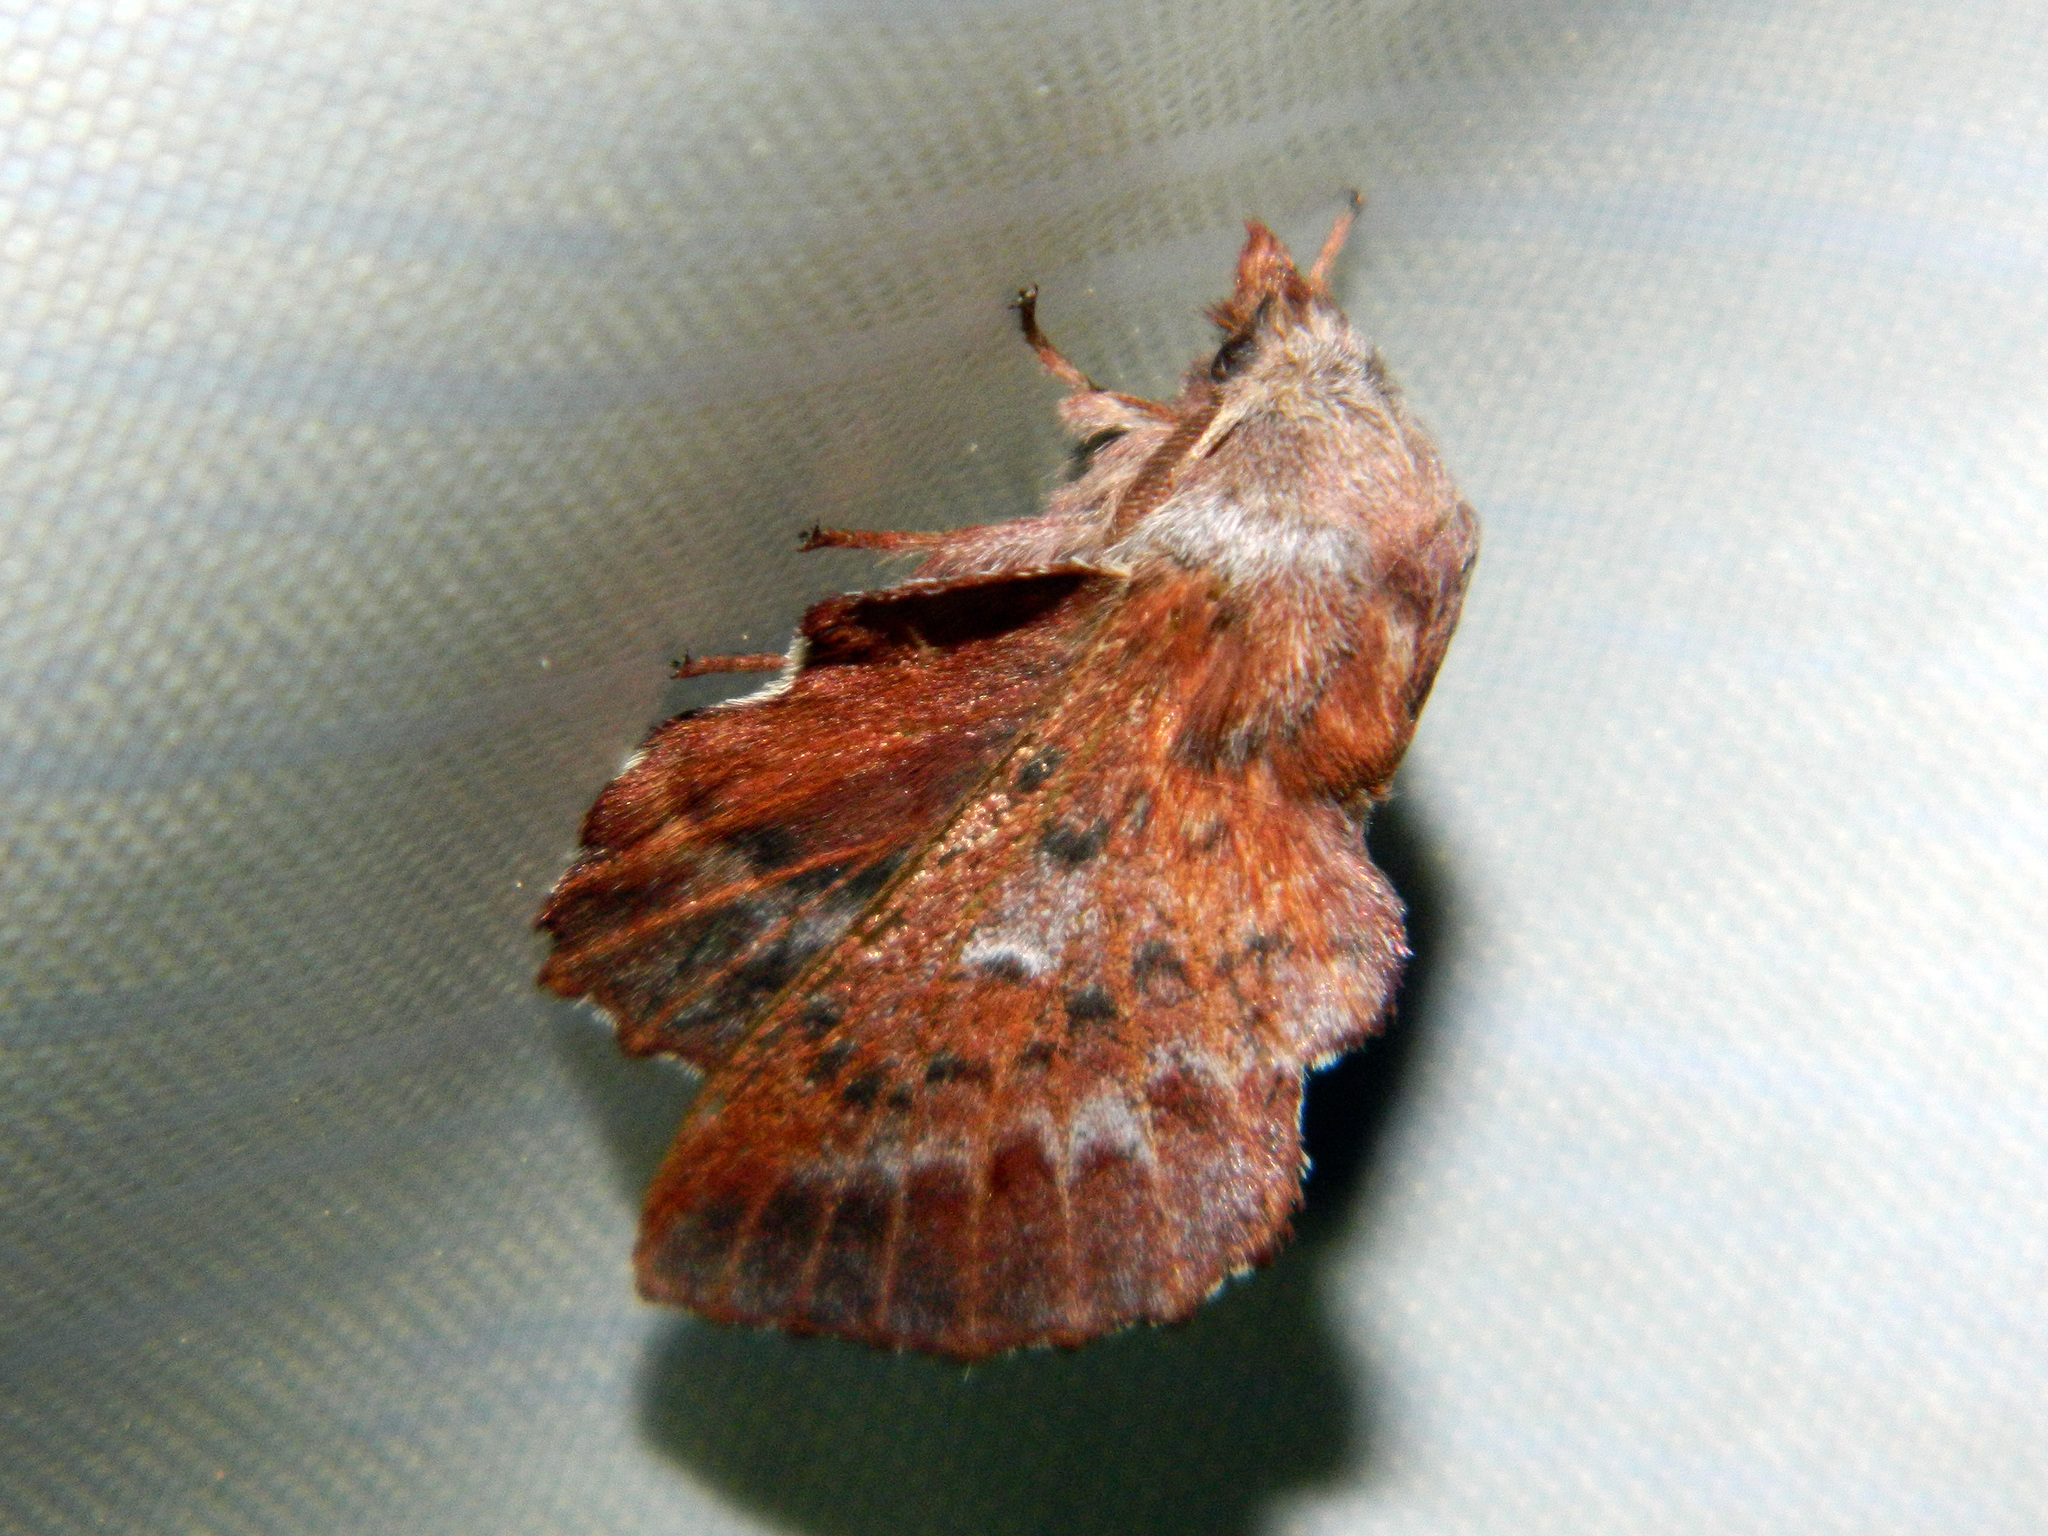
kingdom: Animalia
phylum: Arthropoda
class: Insecta
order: Lepidoptera
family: Lasiocampidae
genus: Phyllodesma
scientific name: Phyllodesma americana
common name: American lappet moth
